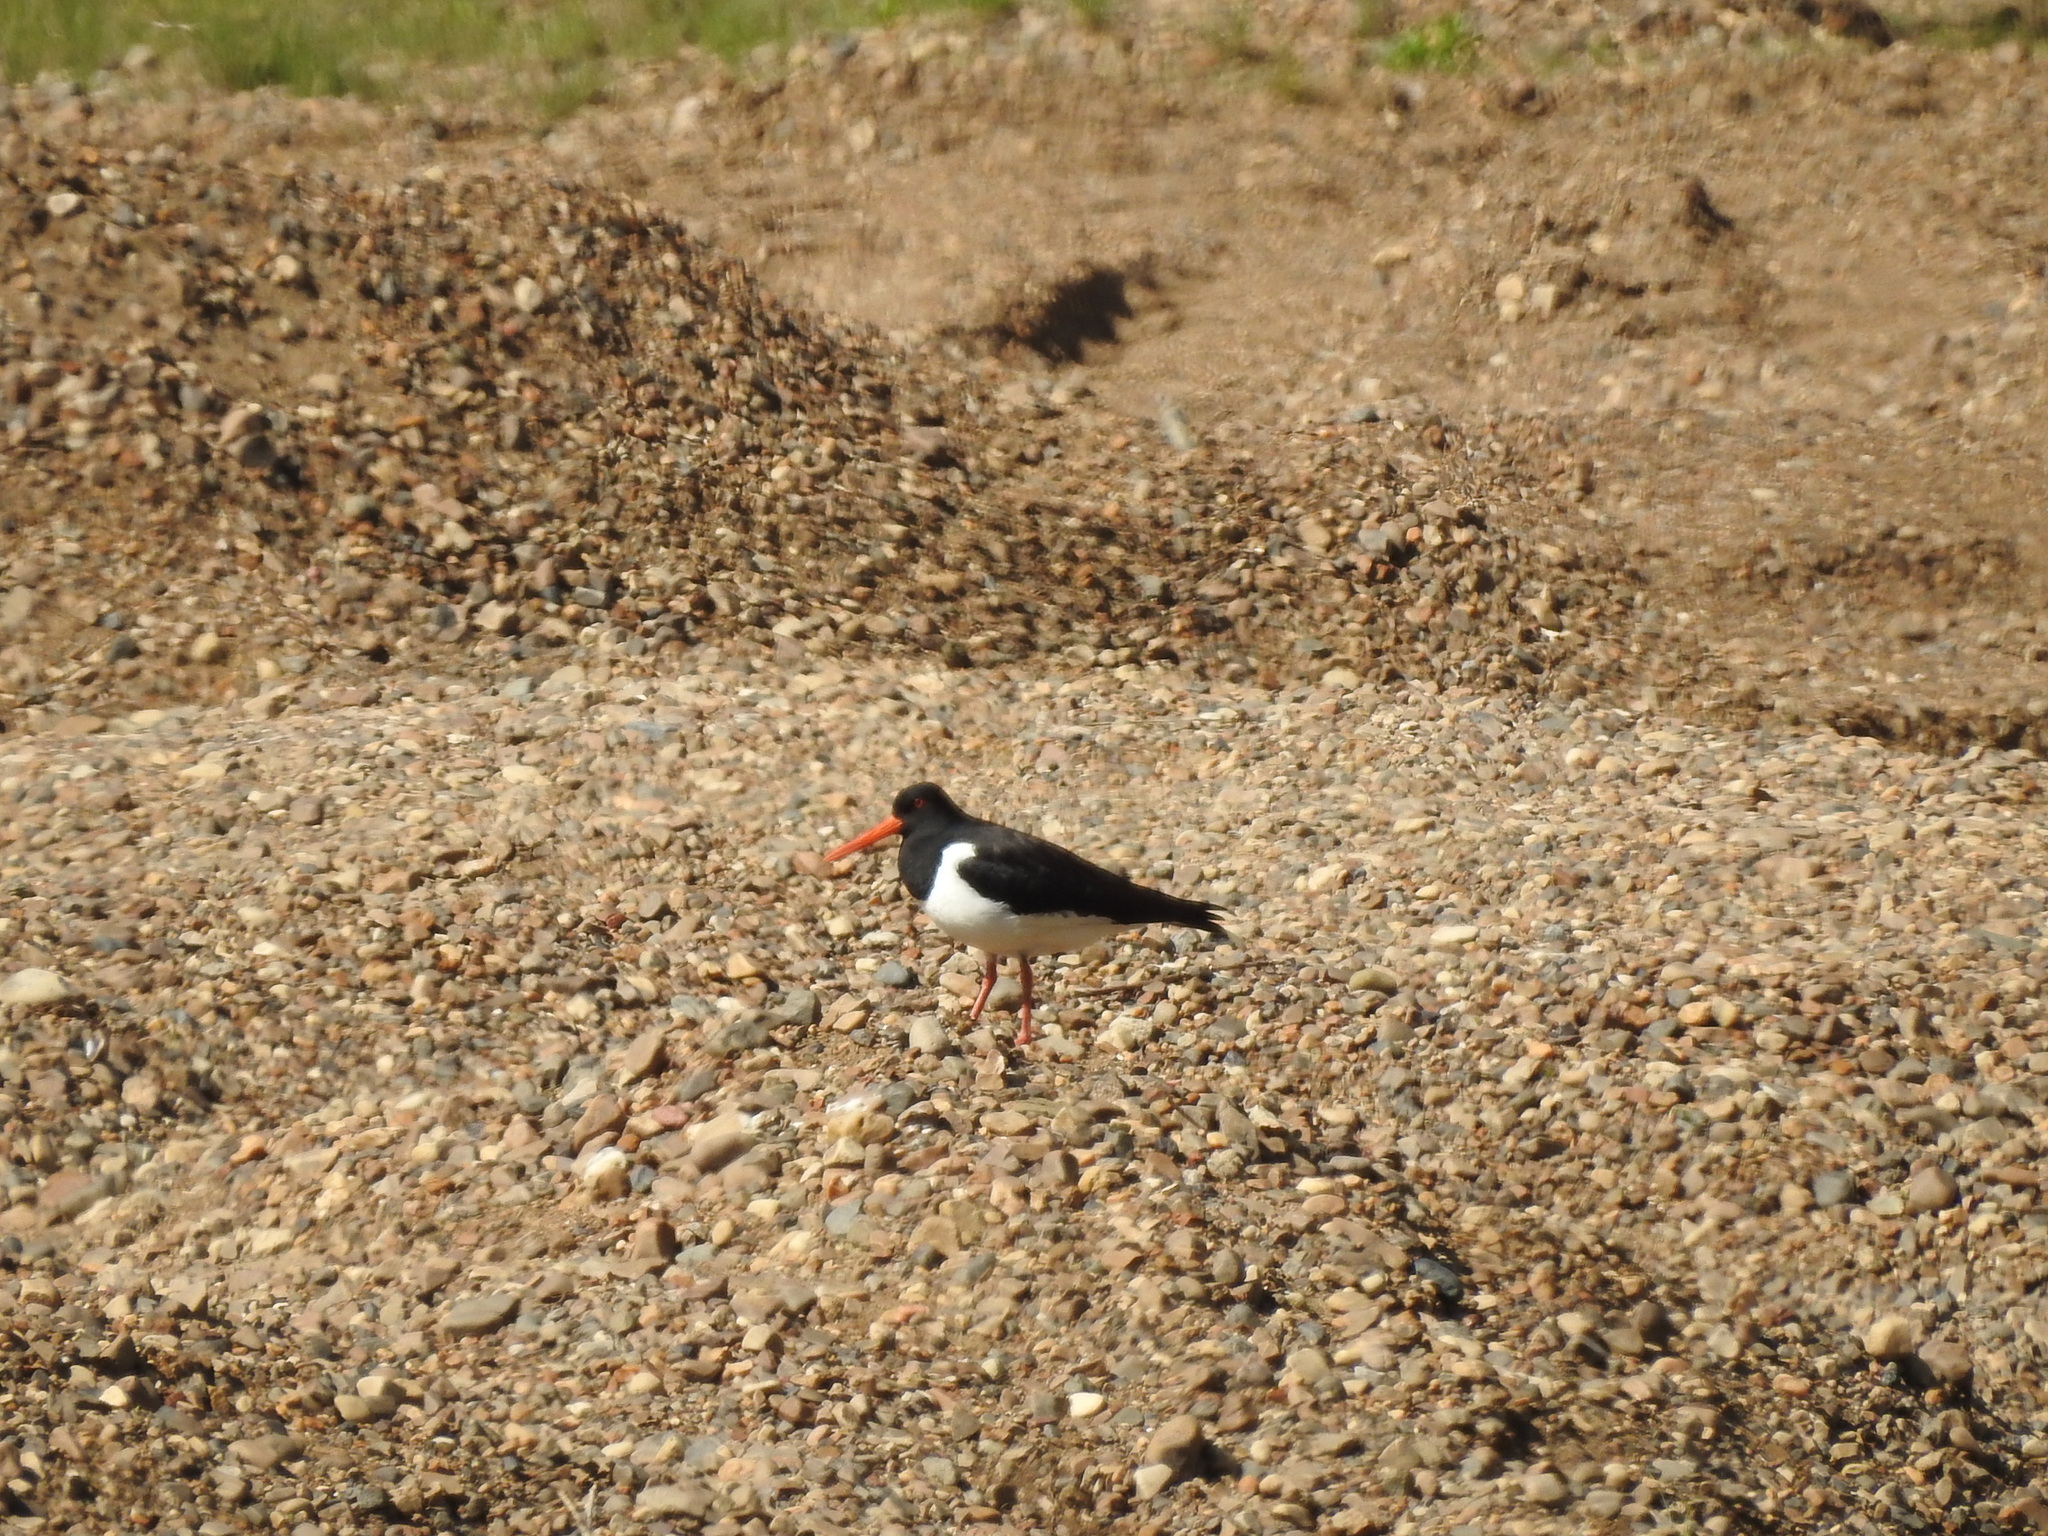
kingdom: Animalia
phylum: Chordata
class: Aves
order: Charadriiformes
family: Haematopodidae
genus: Haematopus
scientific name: Haematopus ostralegus
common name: Eurasian oystercatcher
